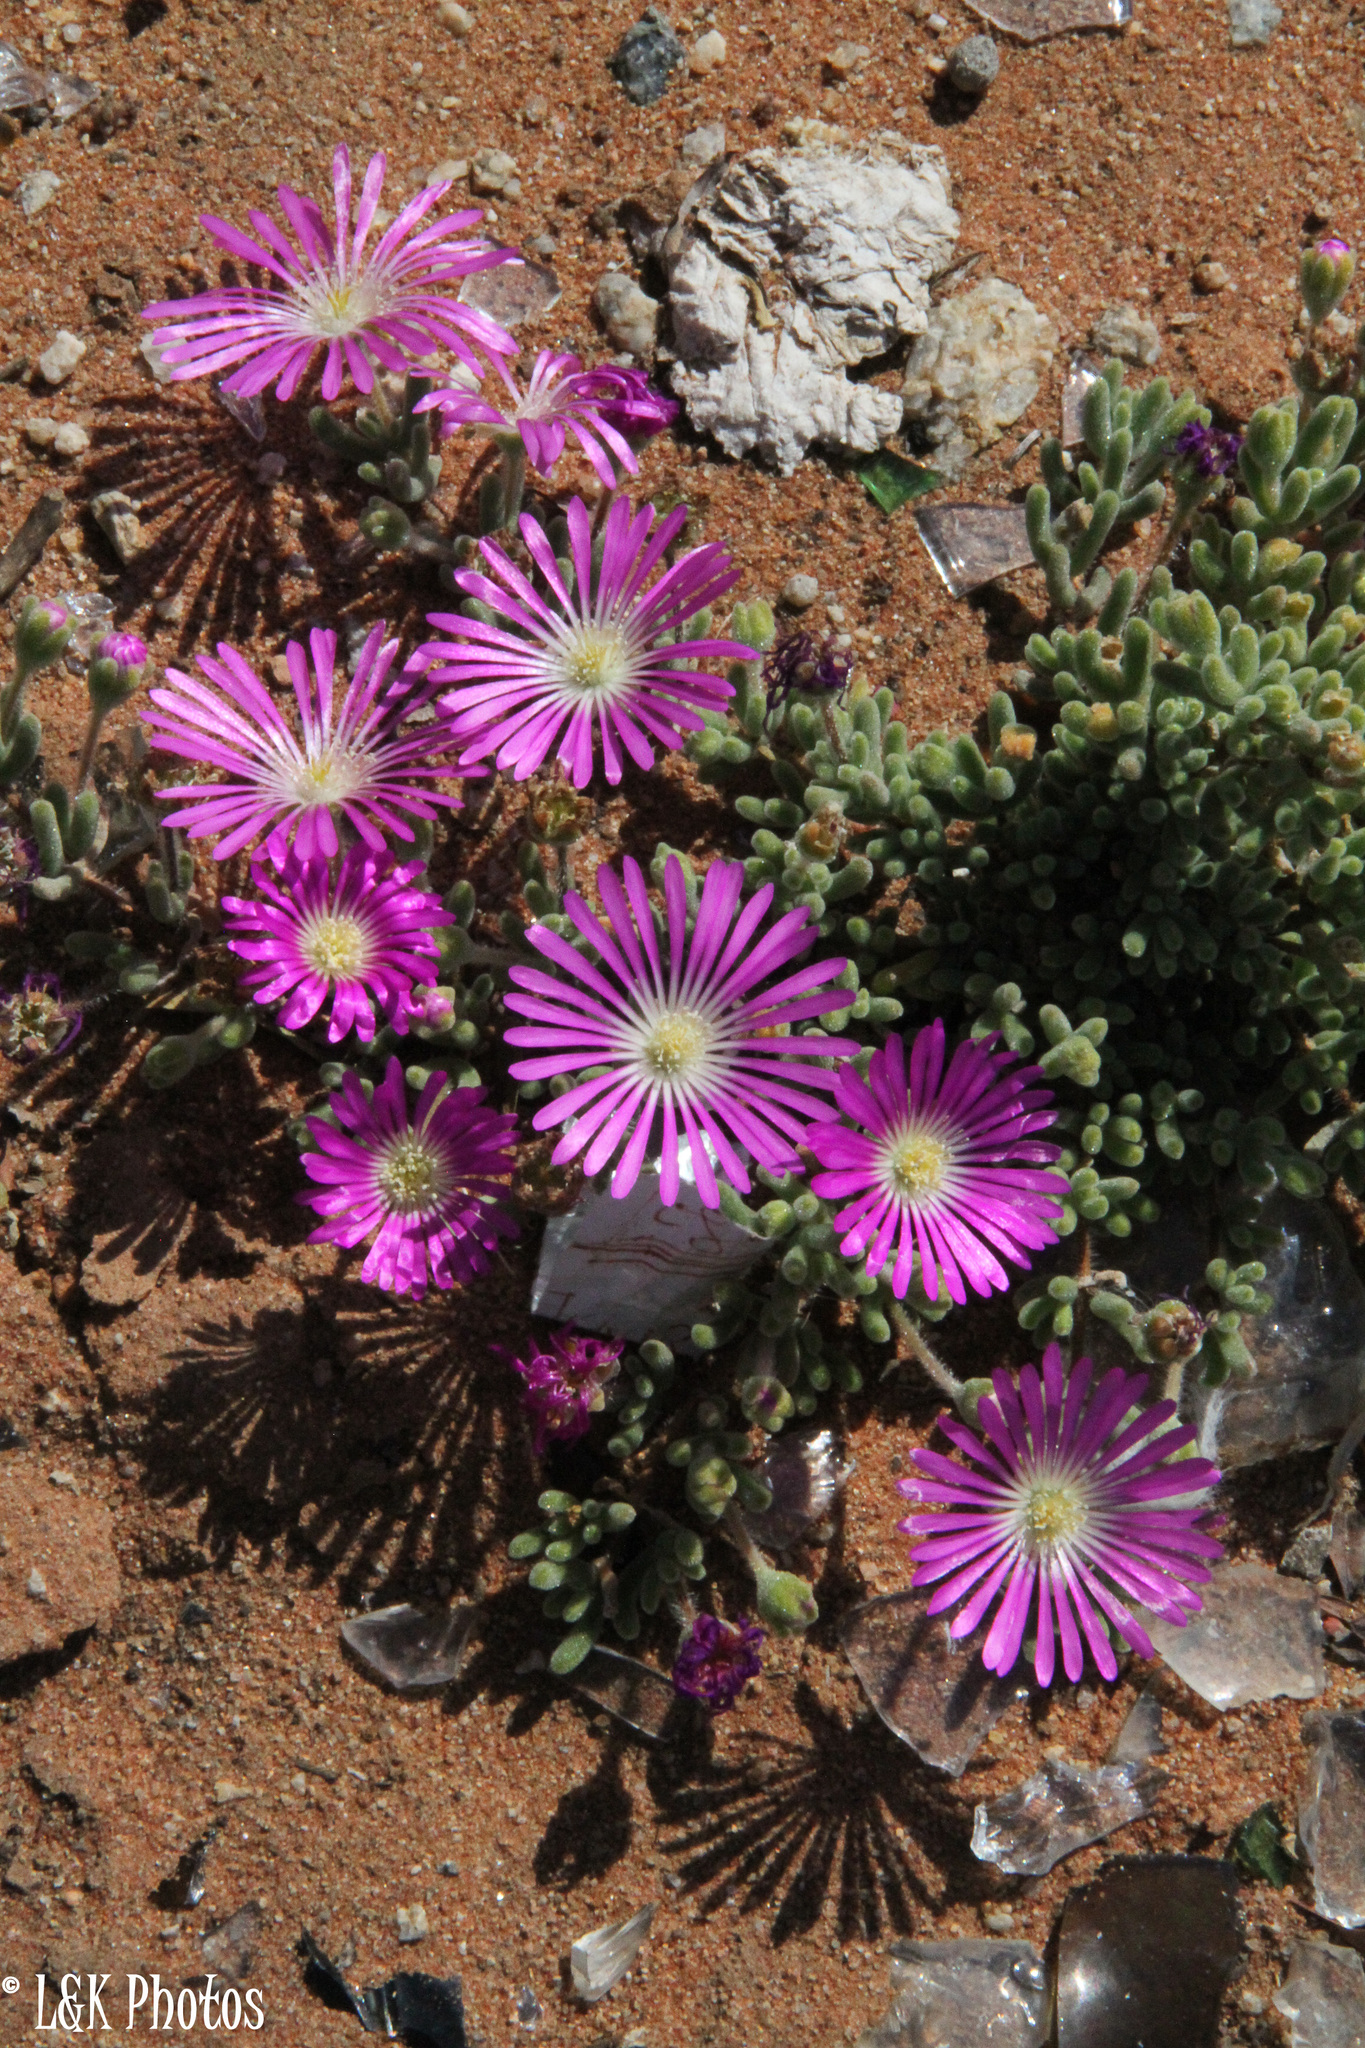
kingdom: Plantae
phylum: Tracheophyta
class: Magnoliopsida
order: Caryophyllales
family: Aizoaceae
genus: Drosanthemum
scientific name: Drosanthemum oculatum
